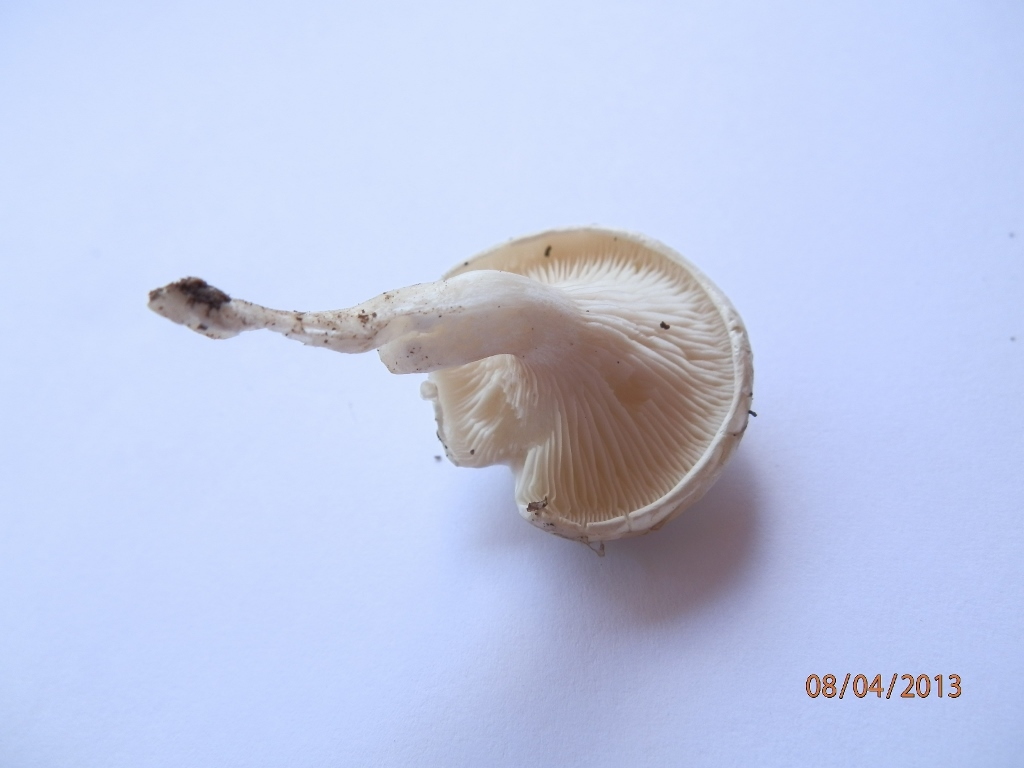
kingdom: Fungi
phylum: Basidiomycota
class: Agaricomycetes
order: Agaricales
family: Entolomataceae
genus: Clitopilus
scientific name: Clitopilus prunulus
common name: The miller
